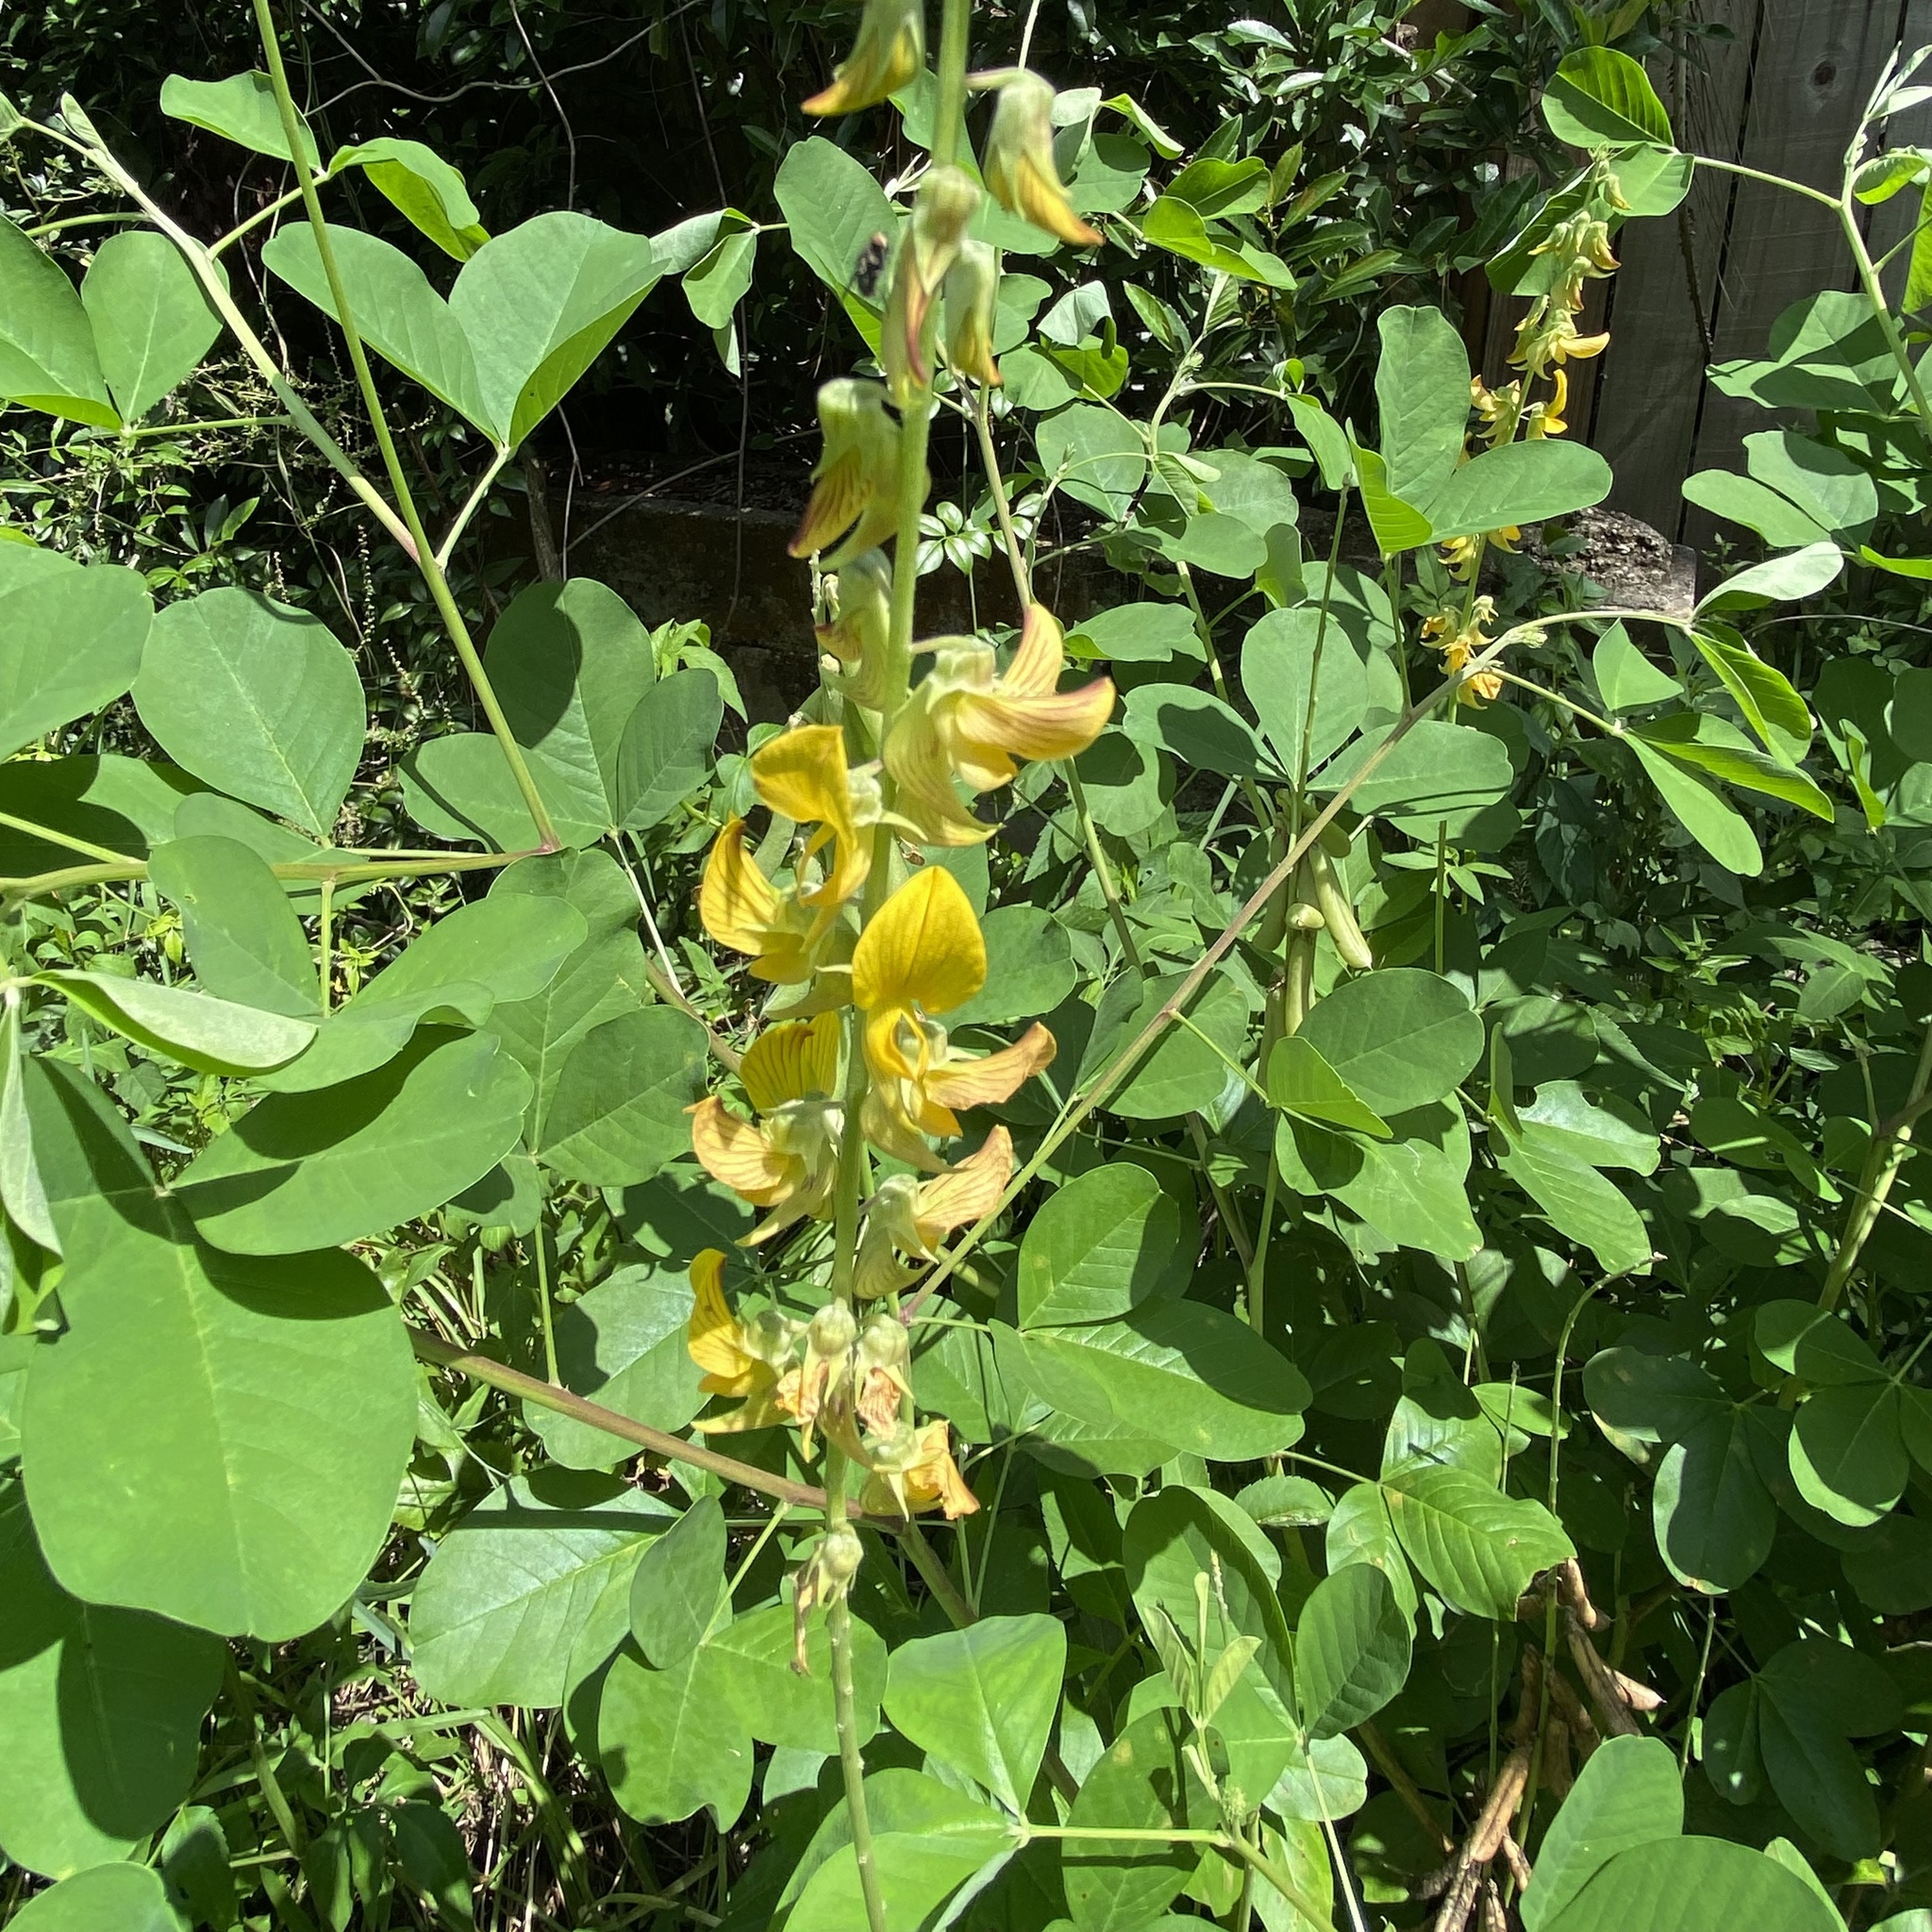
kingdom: Plantae
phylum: Tracheophyta
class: Magnoliopsida
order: Fabales
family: Fabaceae
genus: Crotalaria
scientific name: Crotalaria pallida
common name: Smooth rattlebox
